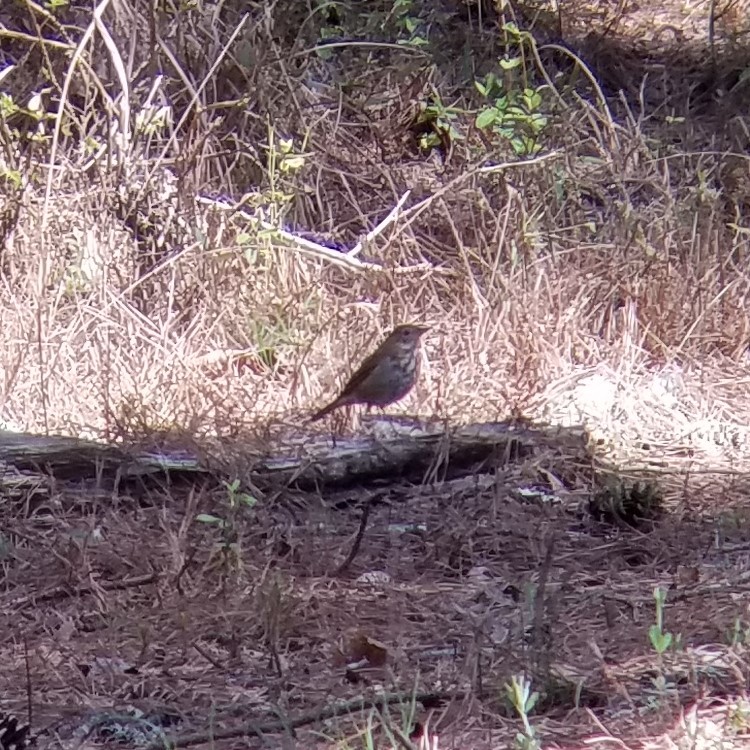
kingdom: Animalia
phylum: Chordata
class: Aves
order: Passeriformes
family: Turdidae
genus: Catharus
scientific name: Catharus guttatus
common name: Hermit thrush
